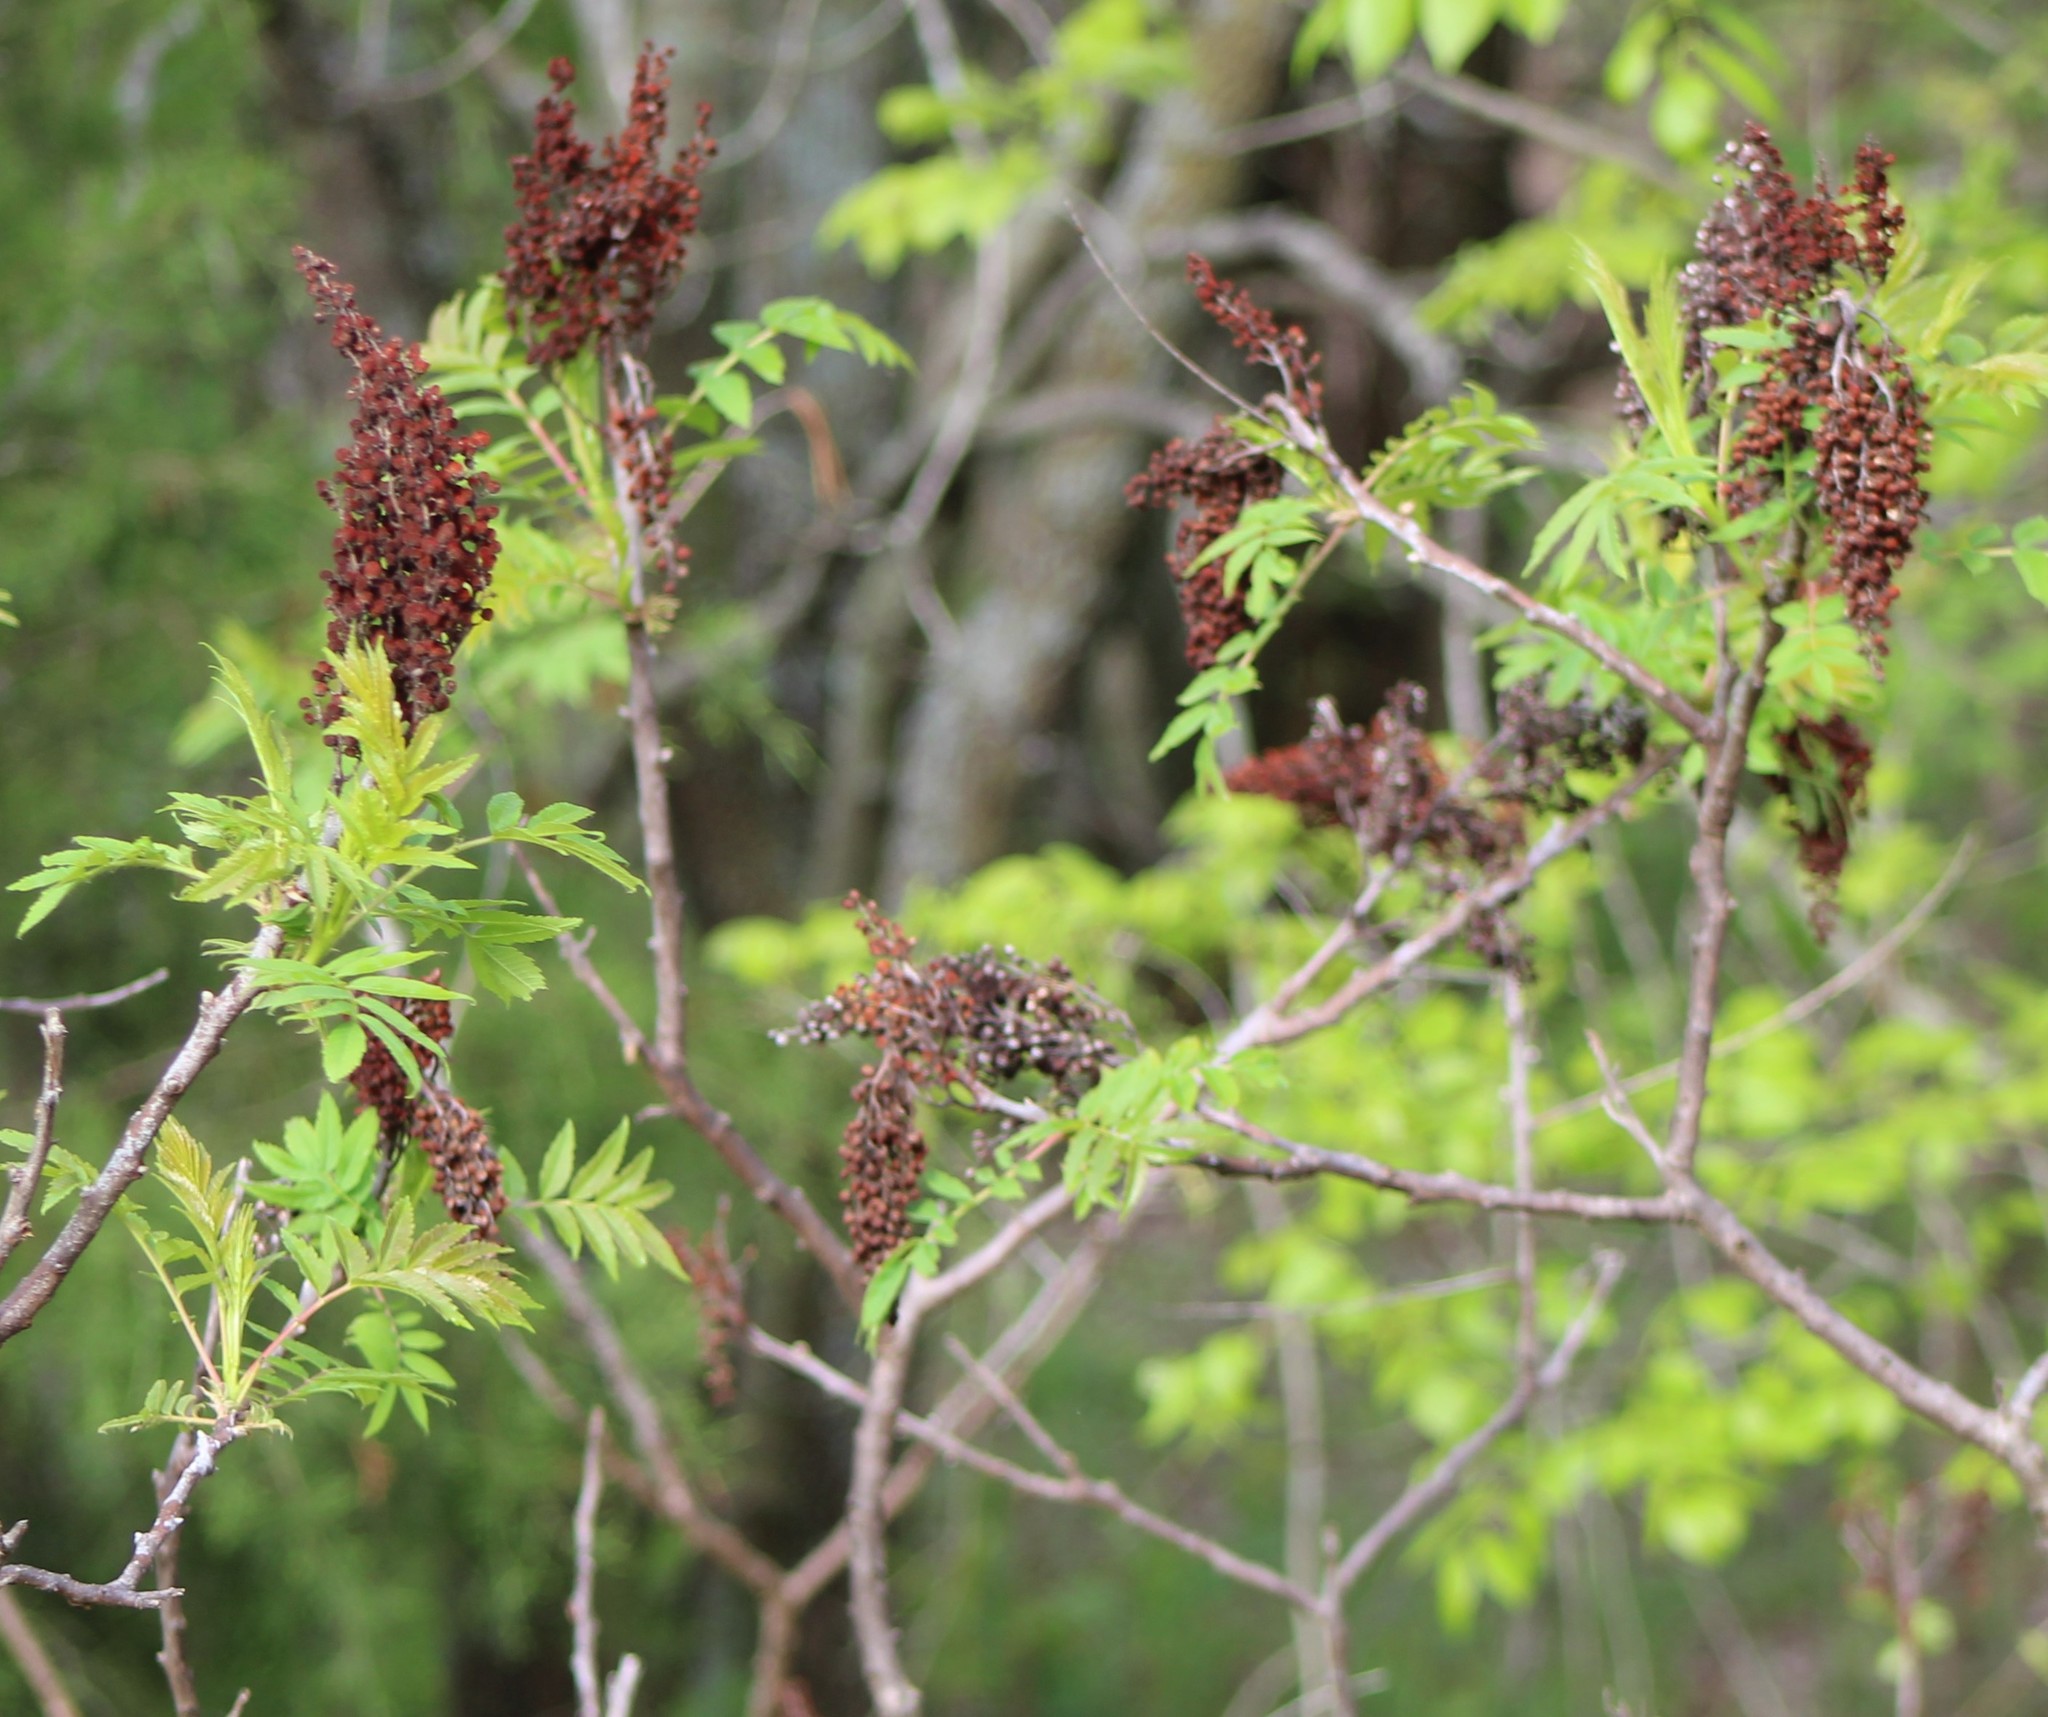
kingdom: Plantae
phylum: Tracheophyta
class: Magnoliopsida
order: Sapindales
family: Anacardiaceae
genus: Rhus
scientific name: Rhus glabra
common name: Scarlet sumac
